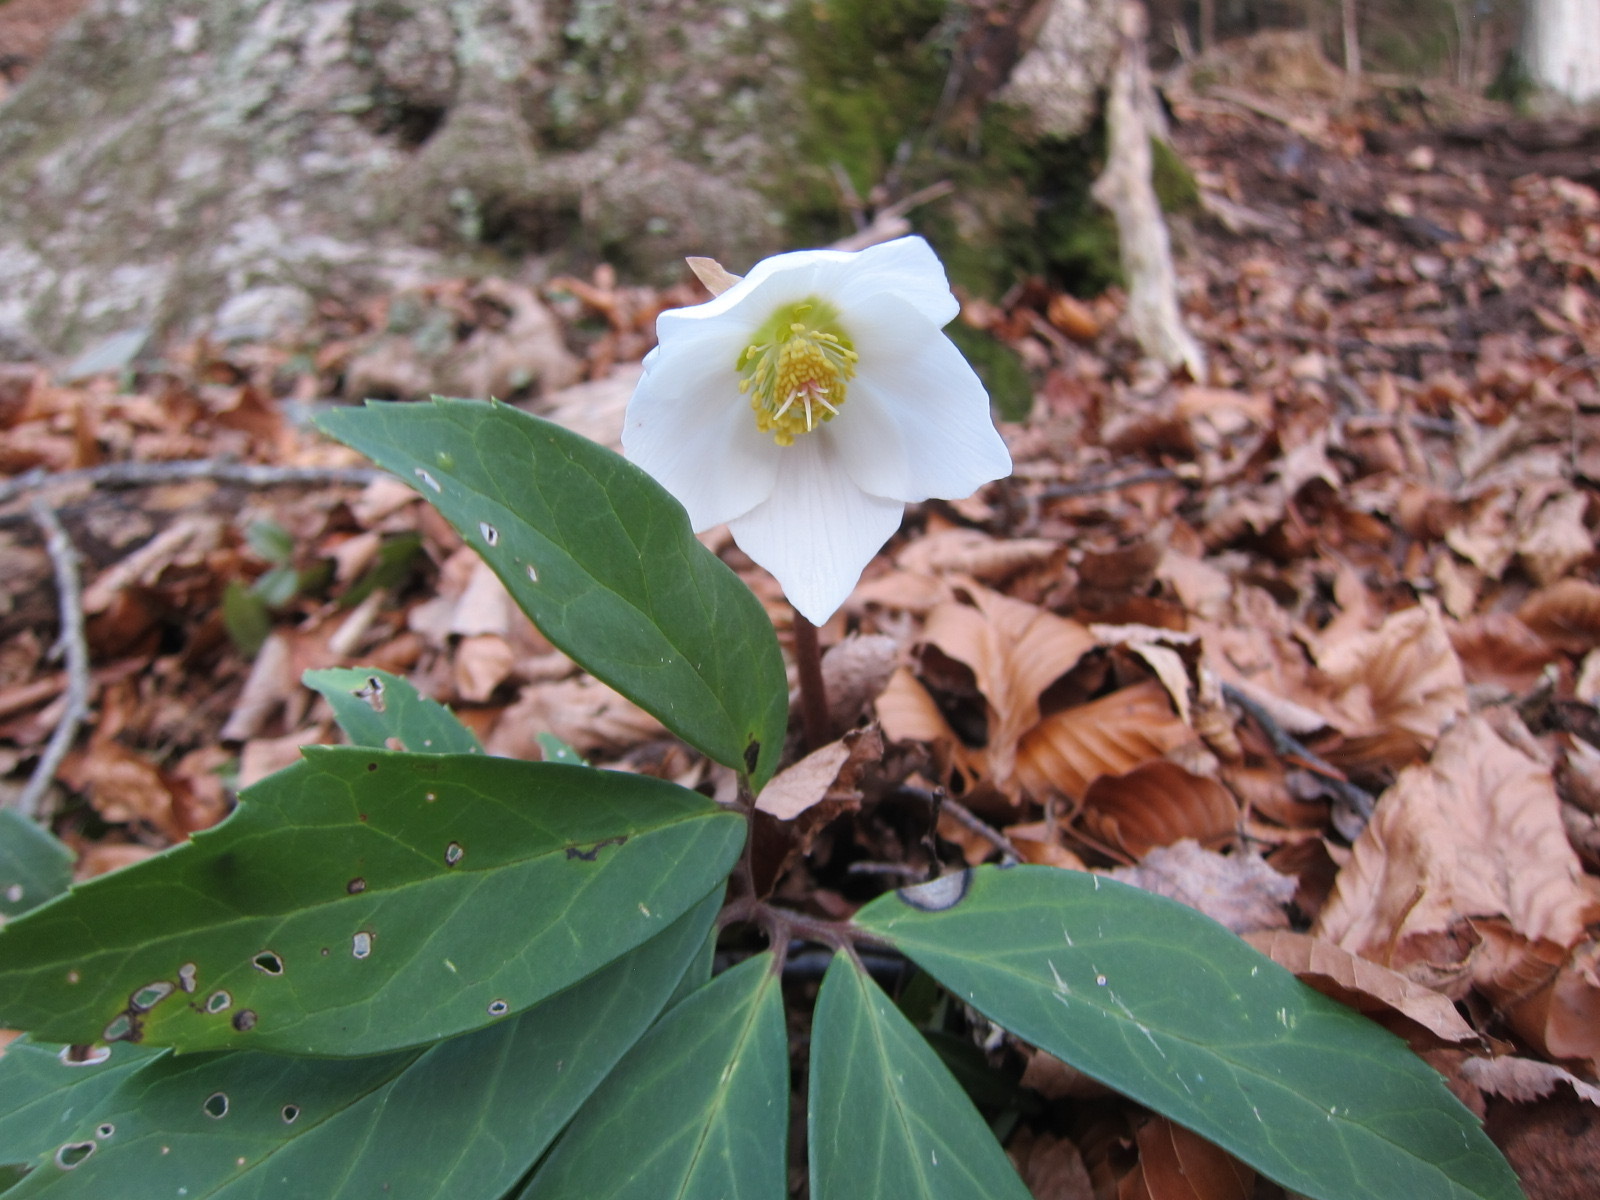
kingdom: Plantae
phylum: Tracheophyta
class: Magnoliopsida
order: Ranunculales
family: Ranunculaceae
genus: Helleborus
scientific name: Helleborus niger
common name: Black hellebore
